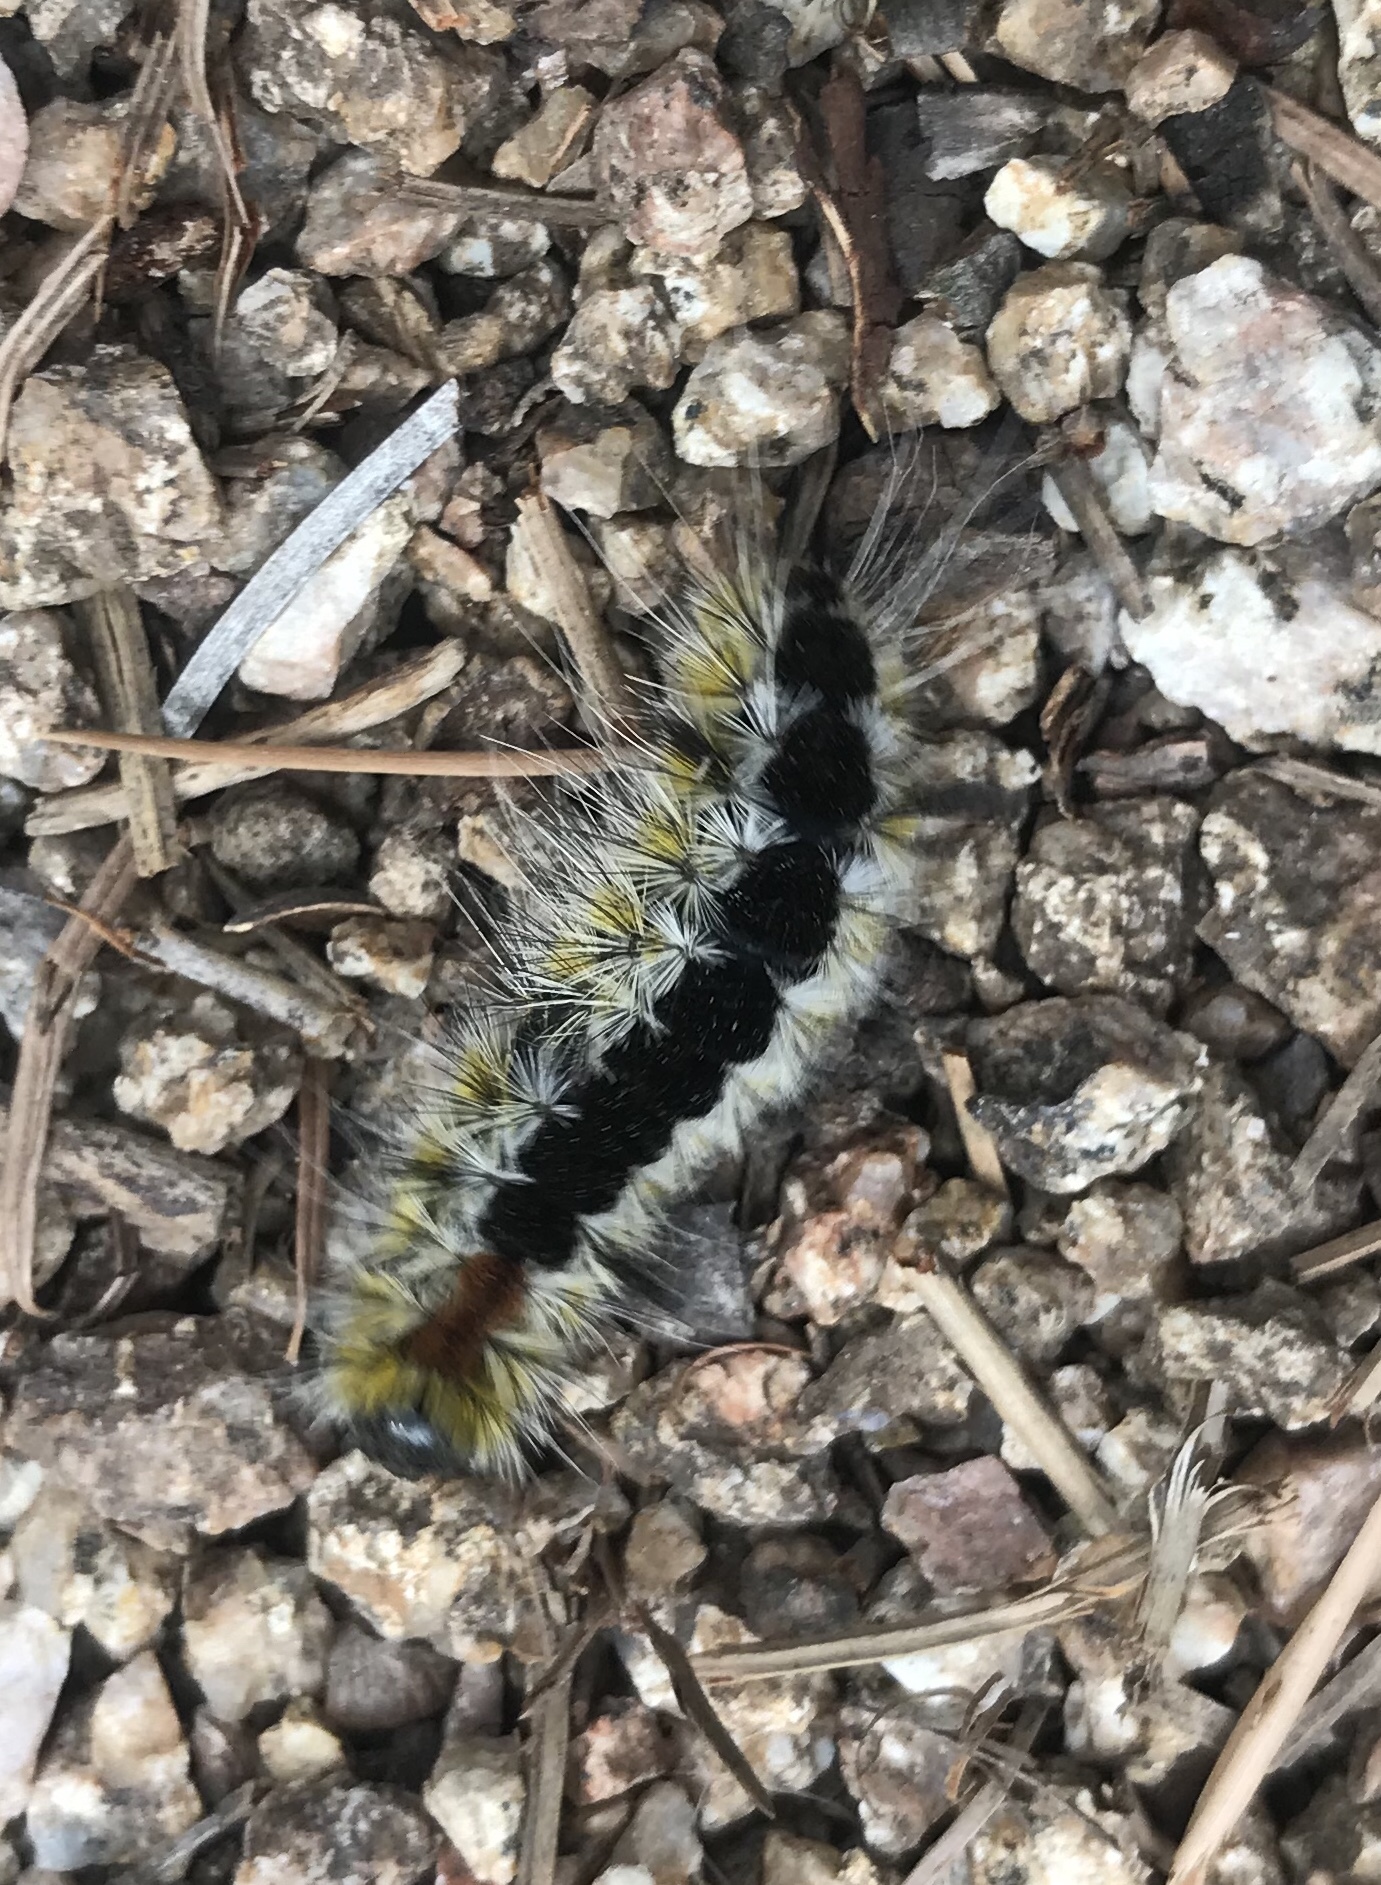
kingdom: Animalia
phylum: Arthropoda
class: Insecta
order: Lepidoptera
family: Erebidae
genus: Lophocampa
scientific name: Lophocampa ingens
